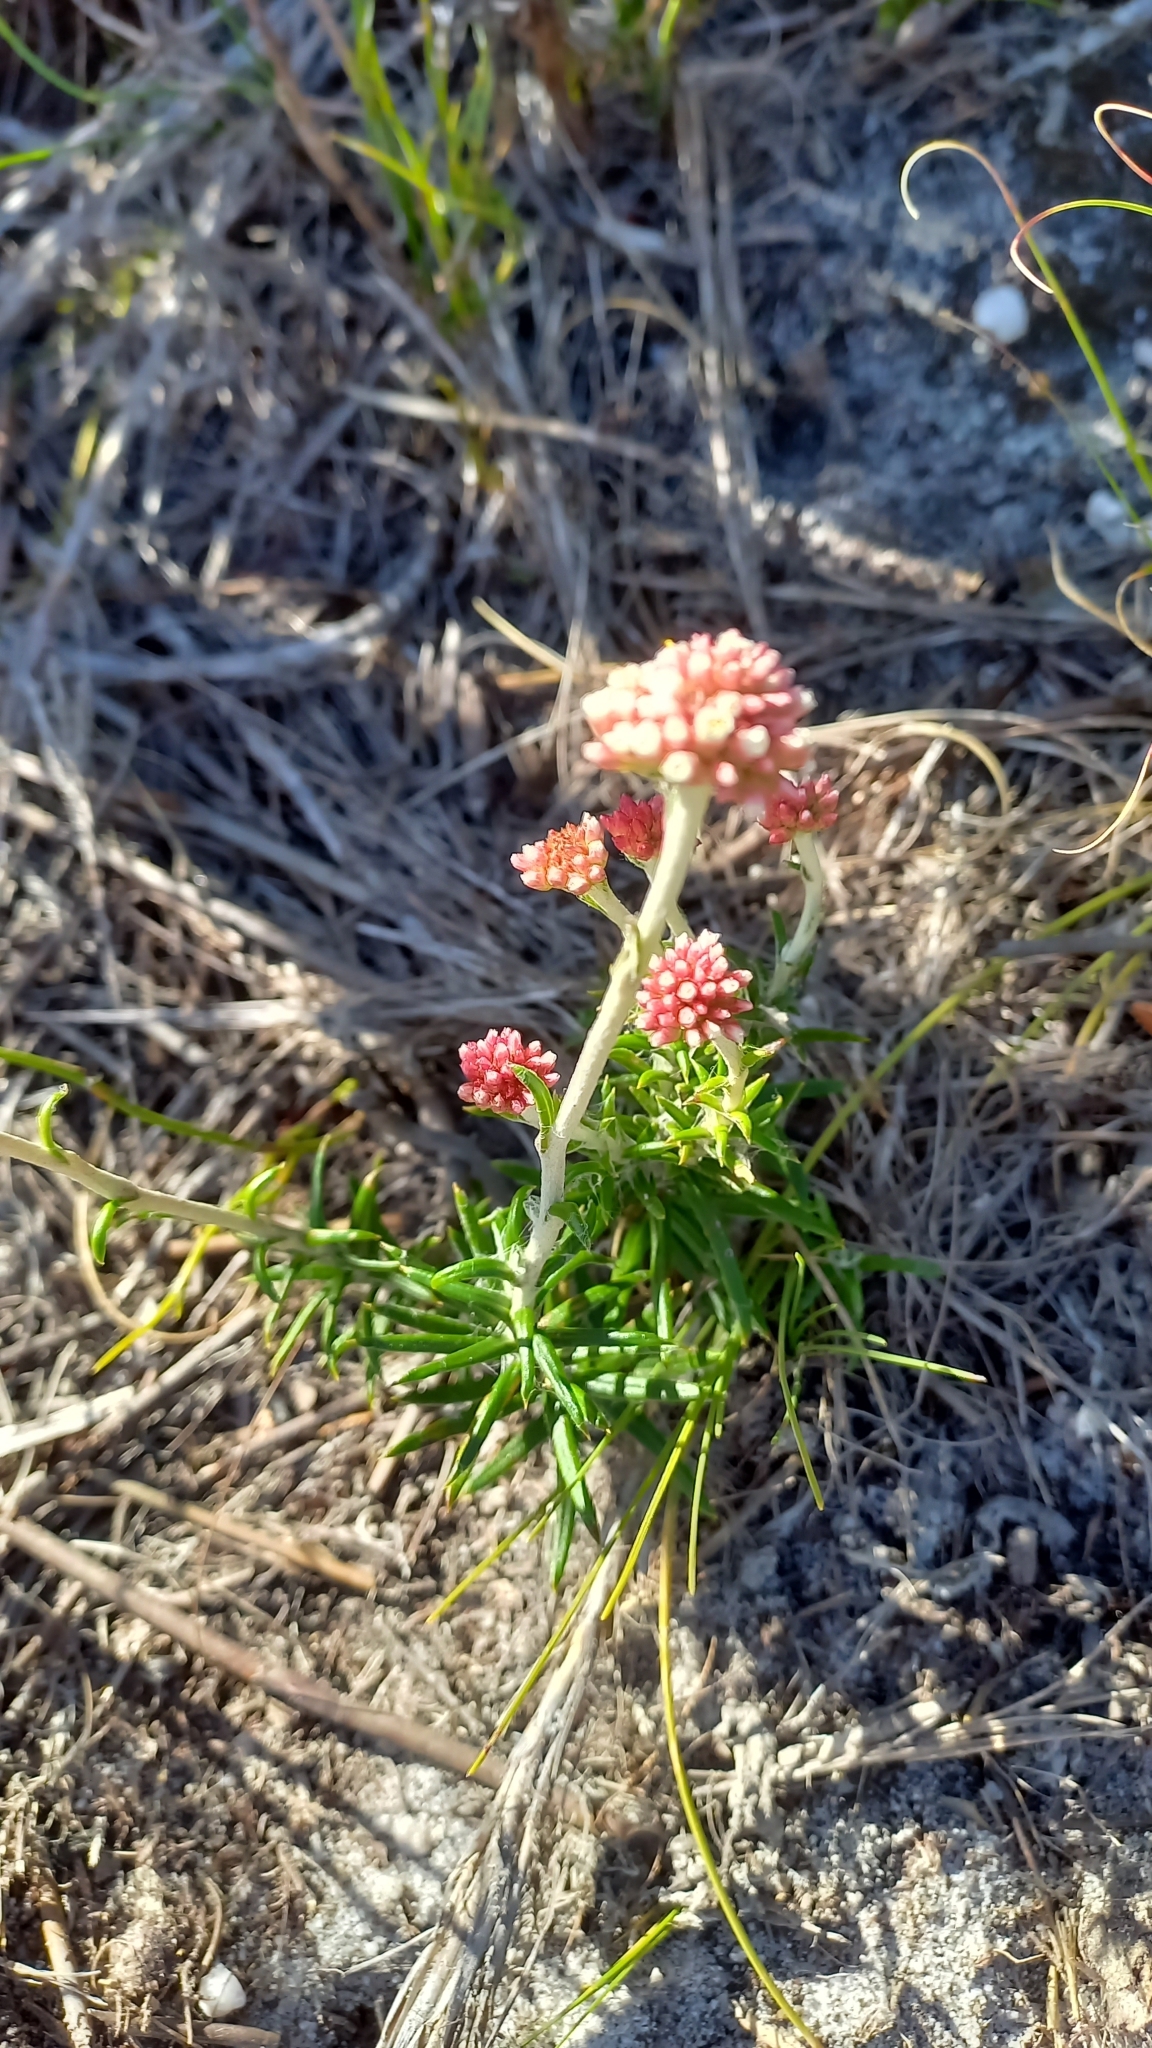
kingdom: Plantae
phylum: Tracheophyta
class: Magnoliopsida
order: Asterales
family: Asteraceae
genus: Anaxeton
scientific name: Anaxeton arborescens
